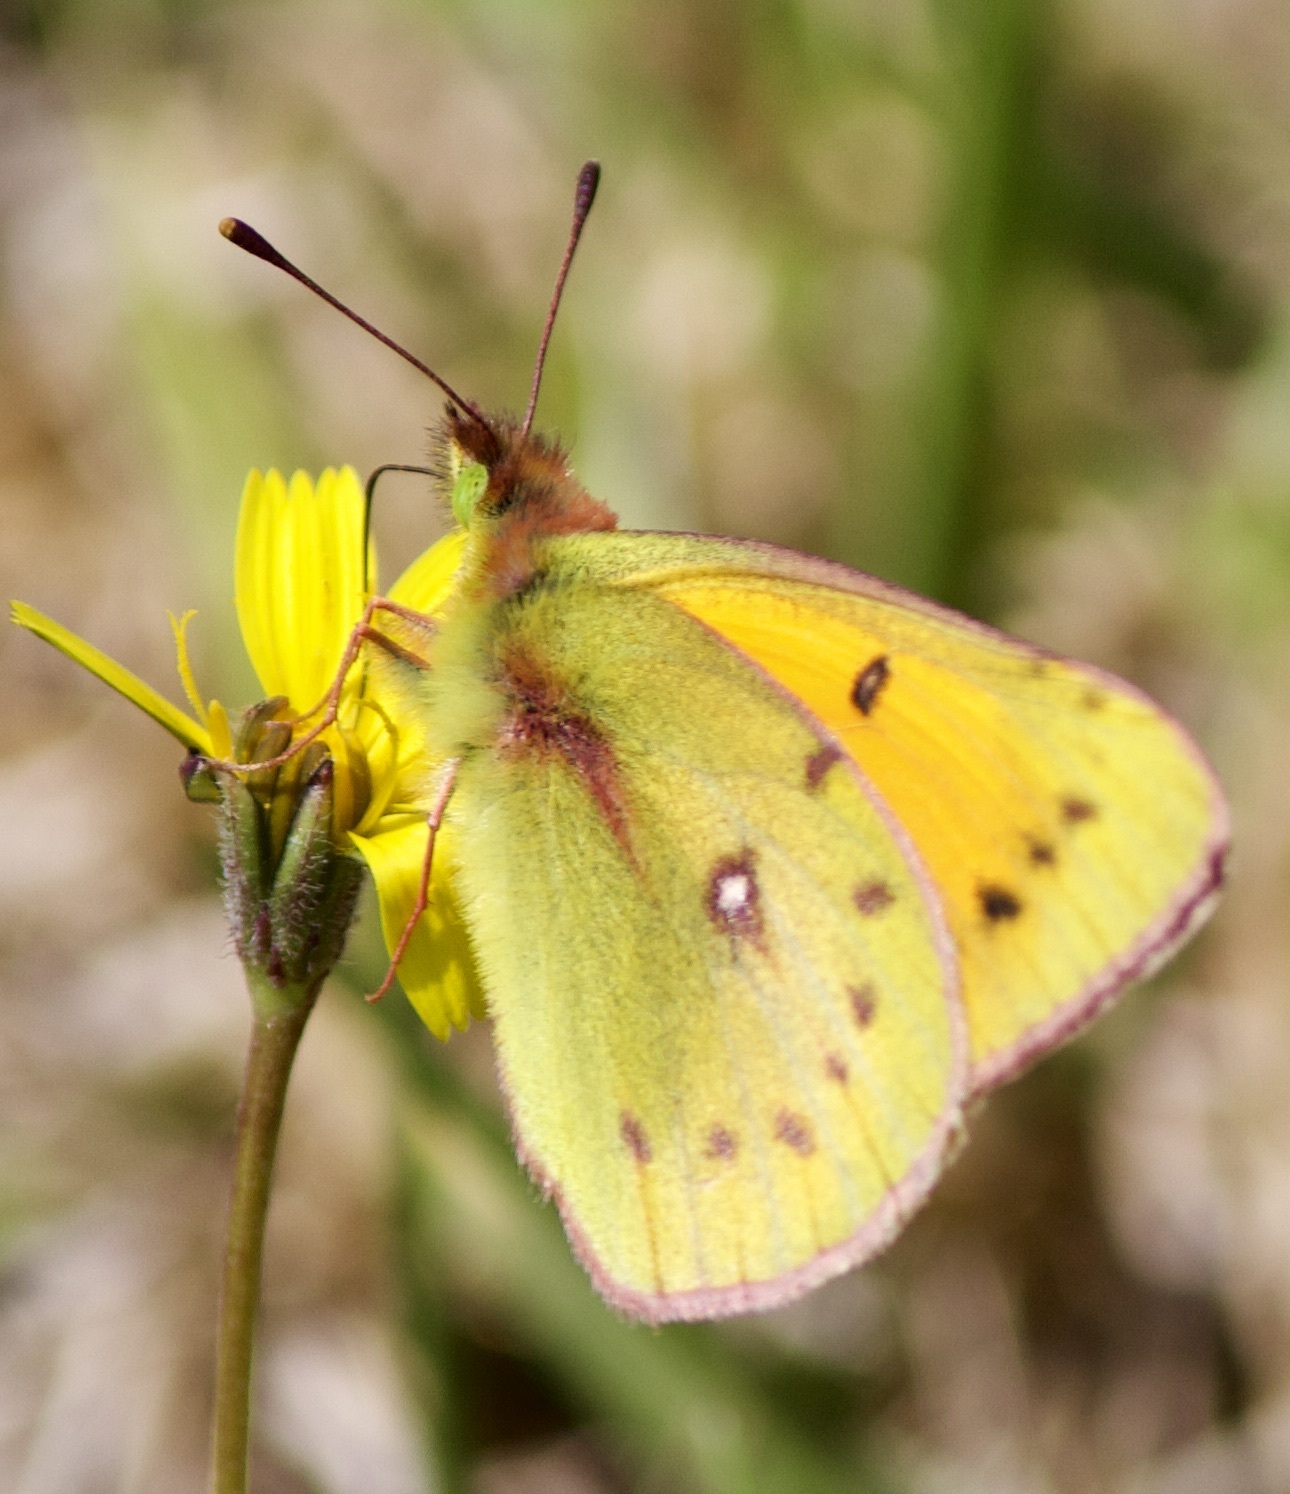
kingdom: Animalia
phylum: Arthropoda
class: Insecta
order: Lepidoptera
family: Pieridae
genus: Colias
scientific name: Colias vauthierii
